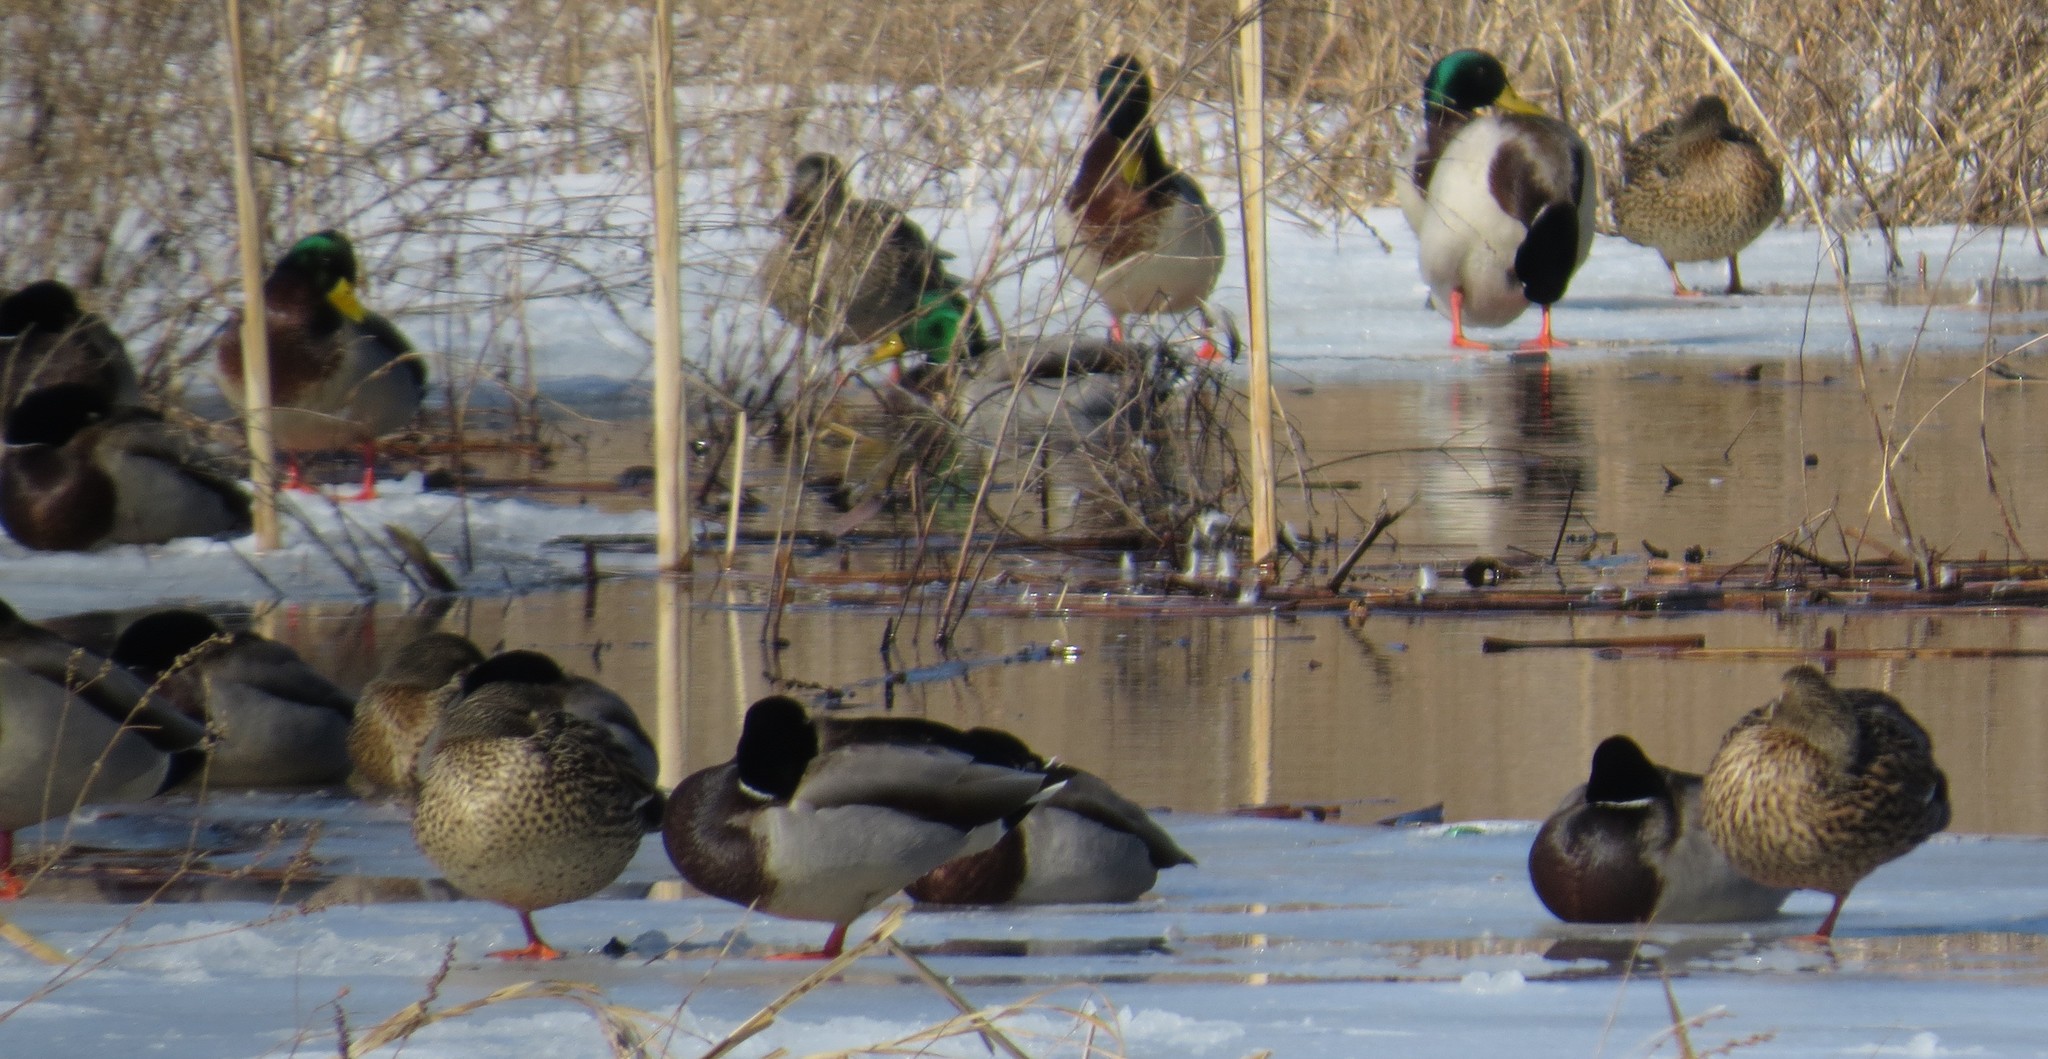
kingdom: Animalia
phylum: Chordata
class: Aves
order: Anseriformes
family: Anatidae
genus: Anas
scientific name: Anas platyrhynchos
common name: Mallard
